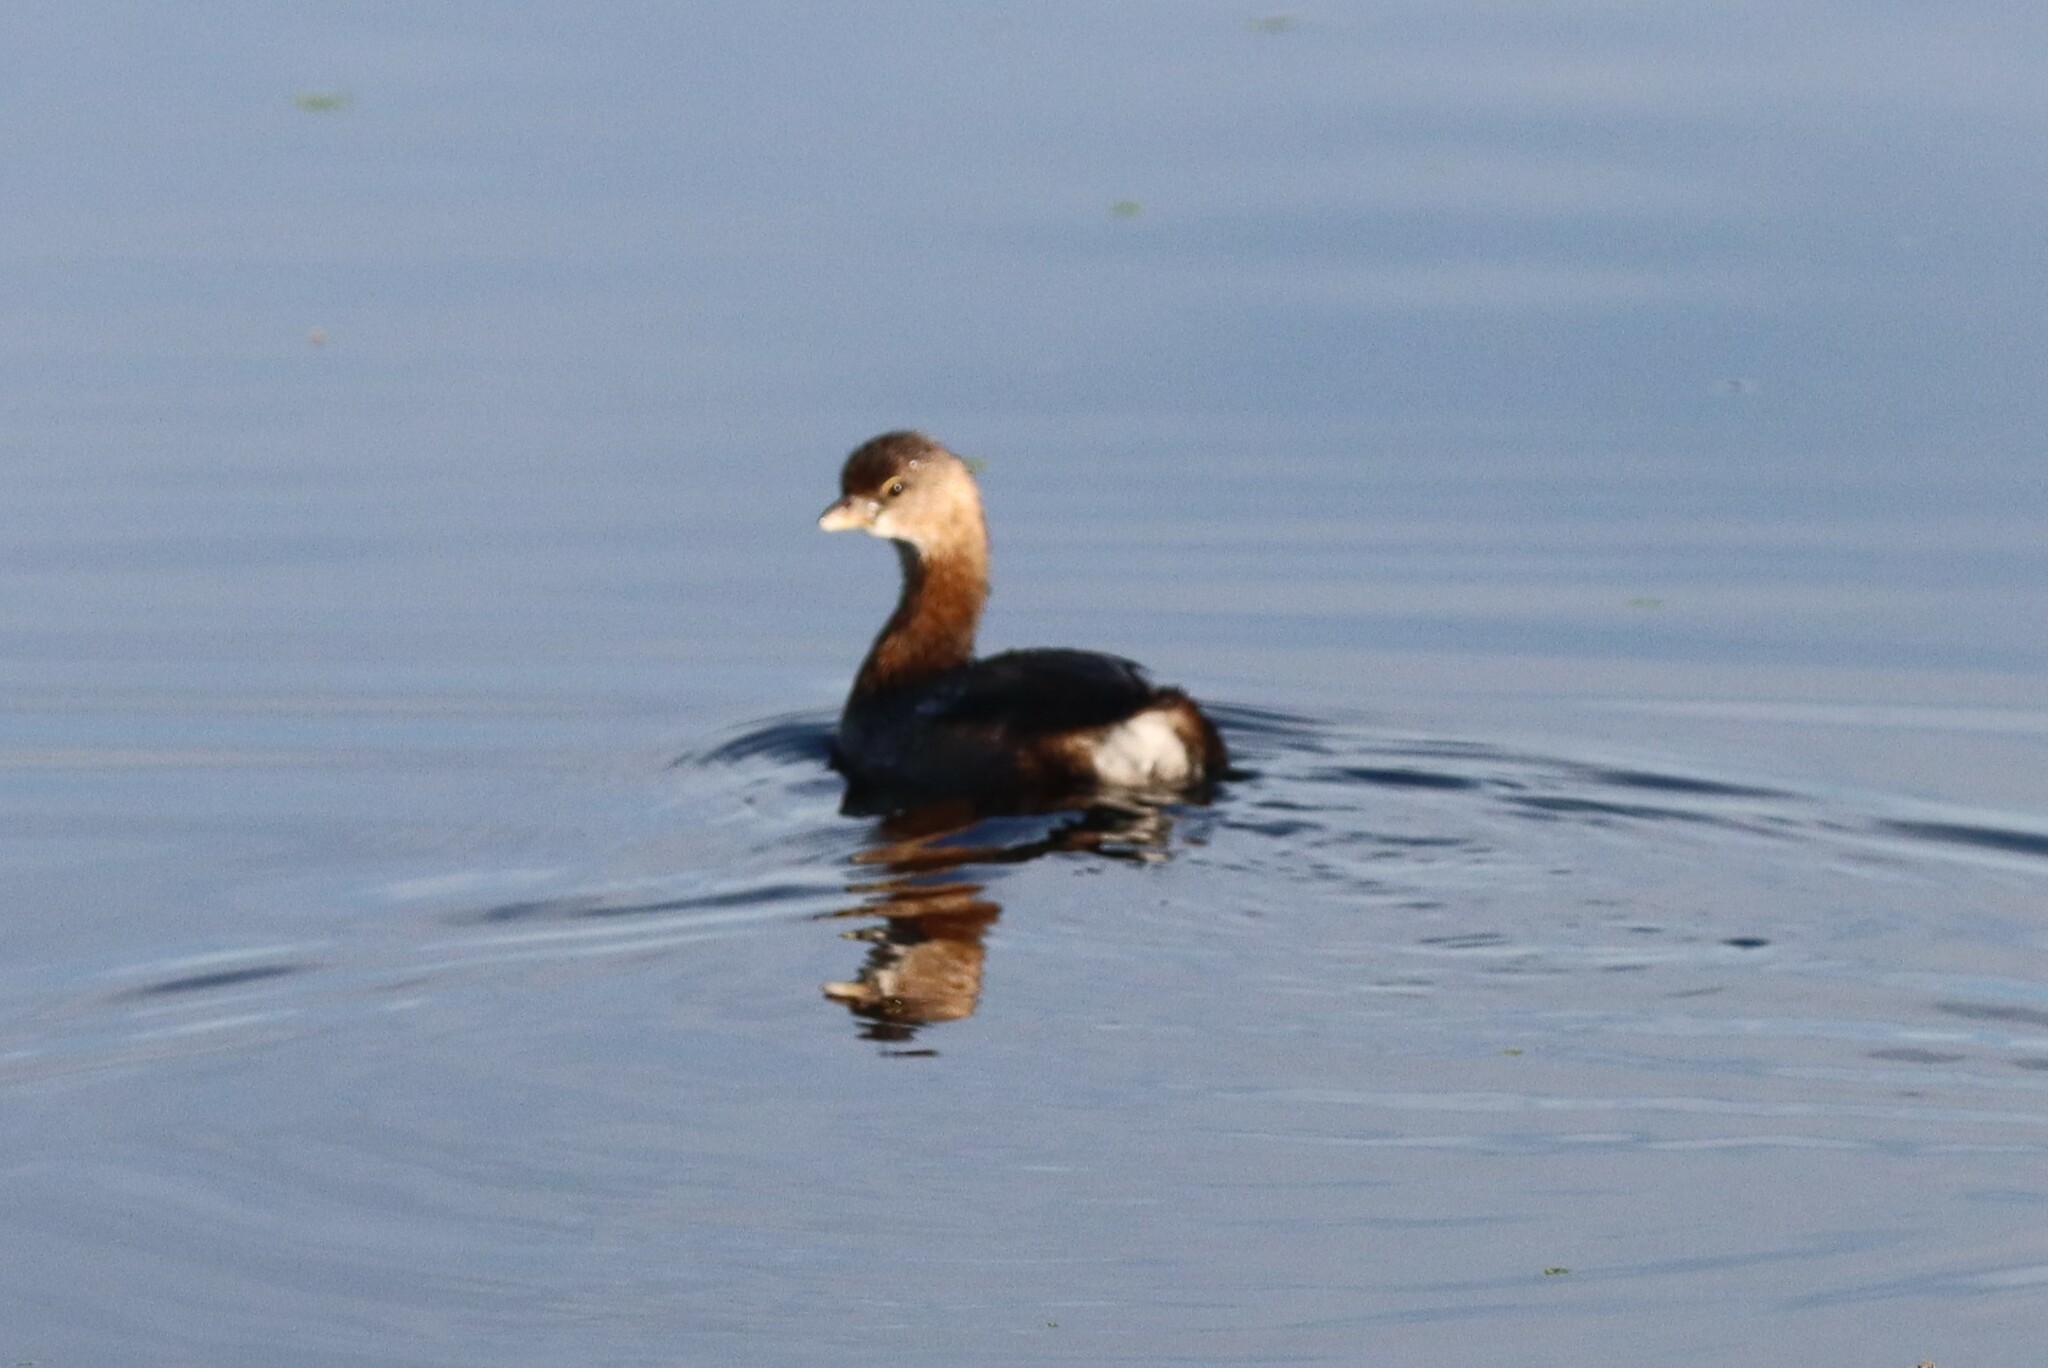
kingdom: Animalia
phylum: Chordata
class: Aves
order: Podicipediformes
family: Podicipedidae
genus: Podilymbus
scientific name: Podilymbus podiceps
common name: Pied-billed grebe
